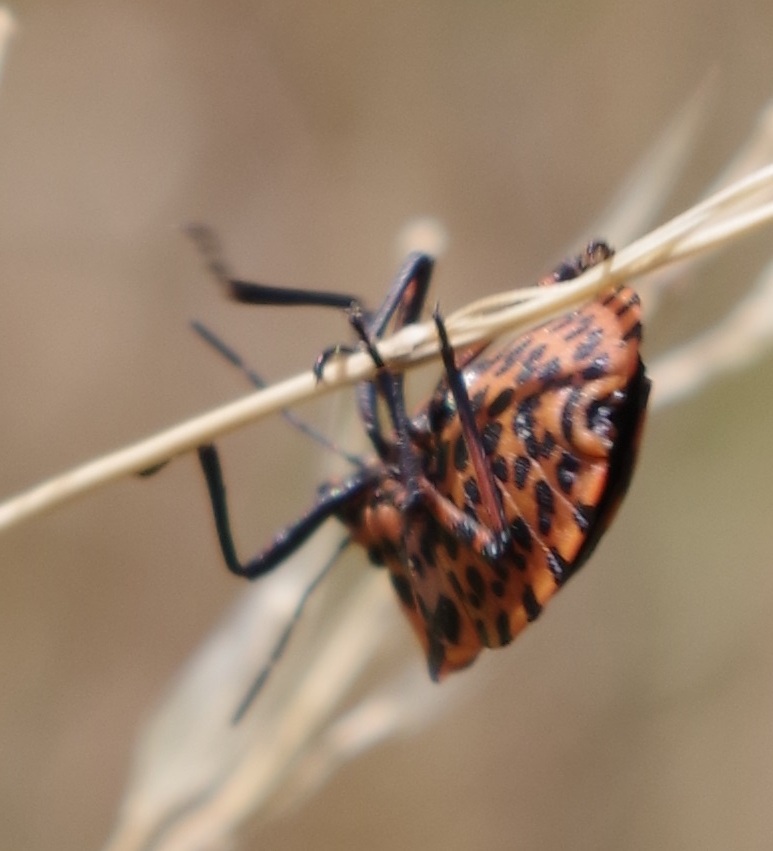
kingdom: Animalia
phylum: Arthropoda
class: Insecta
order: Hemiptera
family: Pentatomidae
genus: Graphosoma
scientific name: Graphosoma italicum
